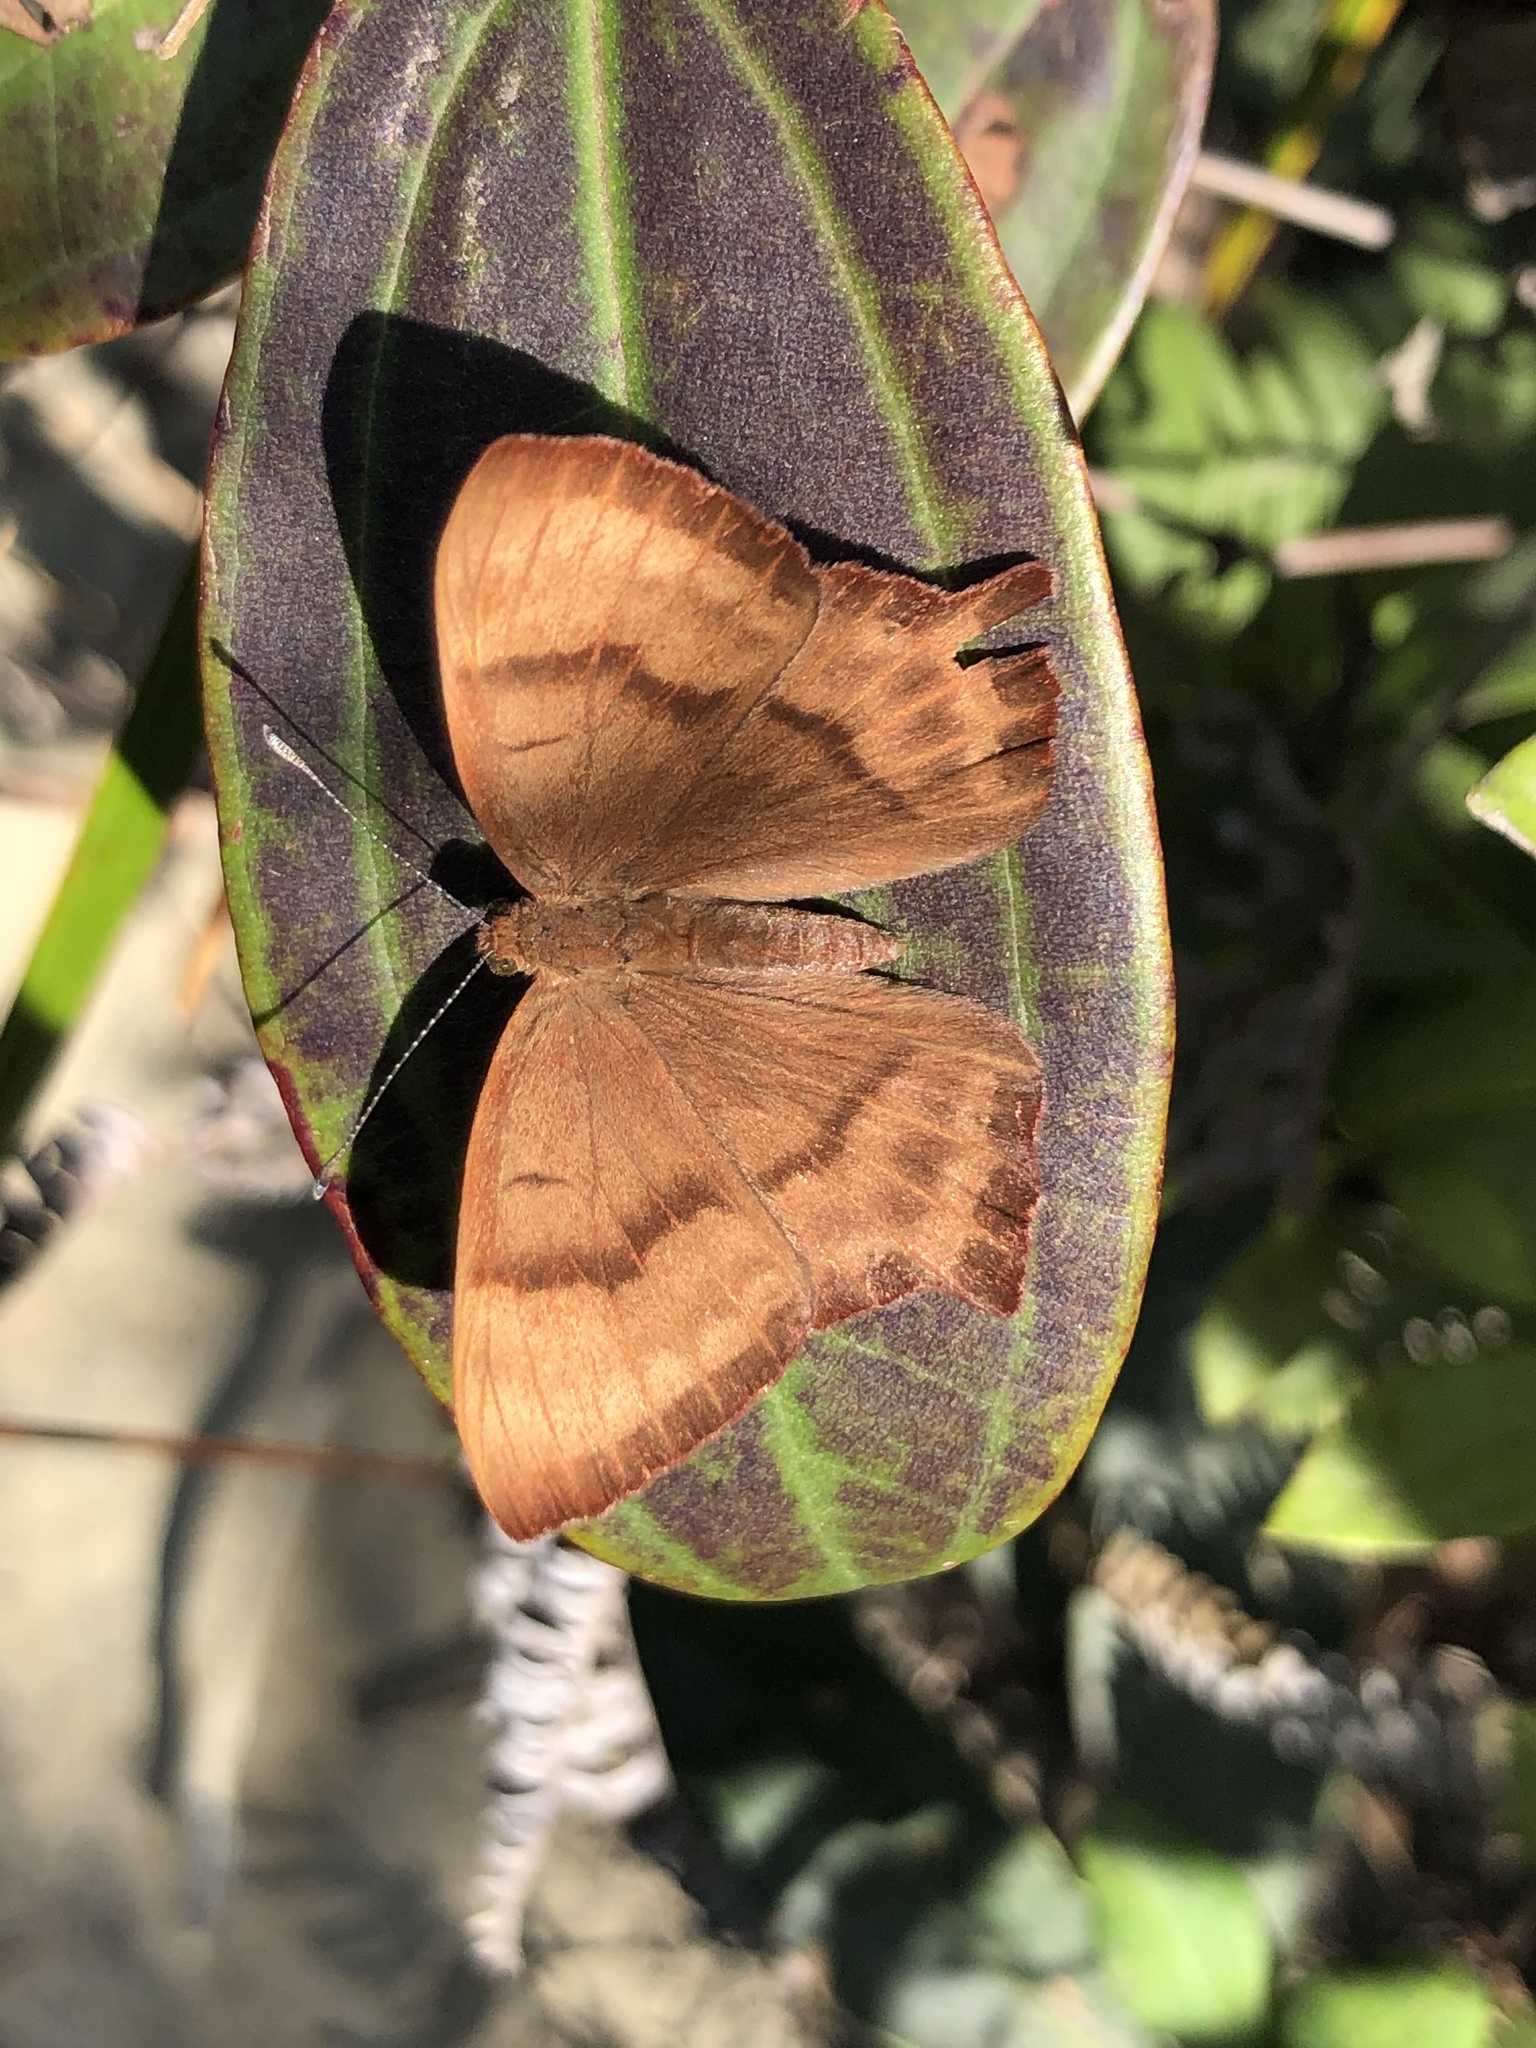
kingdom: Animalia
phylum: Arthropoda
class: Insecta
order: Lepidoptera
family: Lycaenidae
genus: Abisara
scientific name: Abisara echeria
